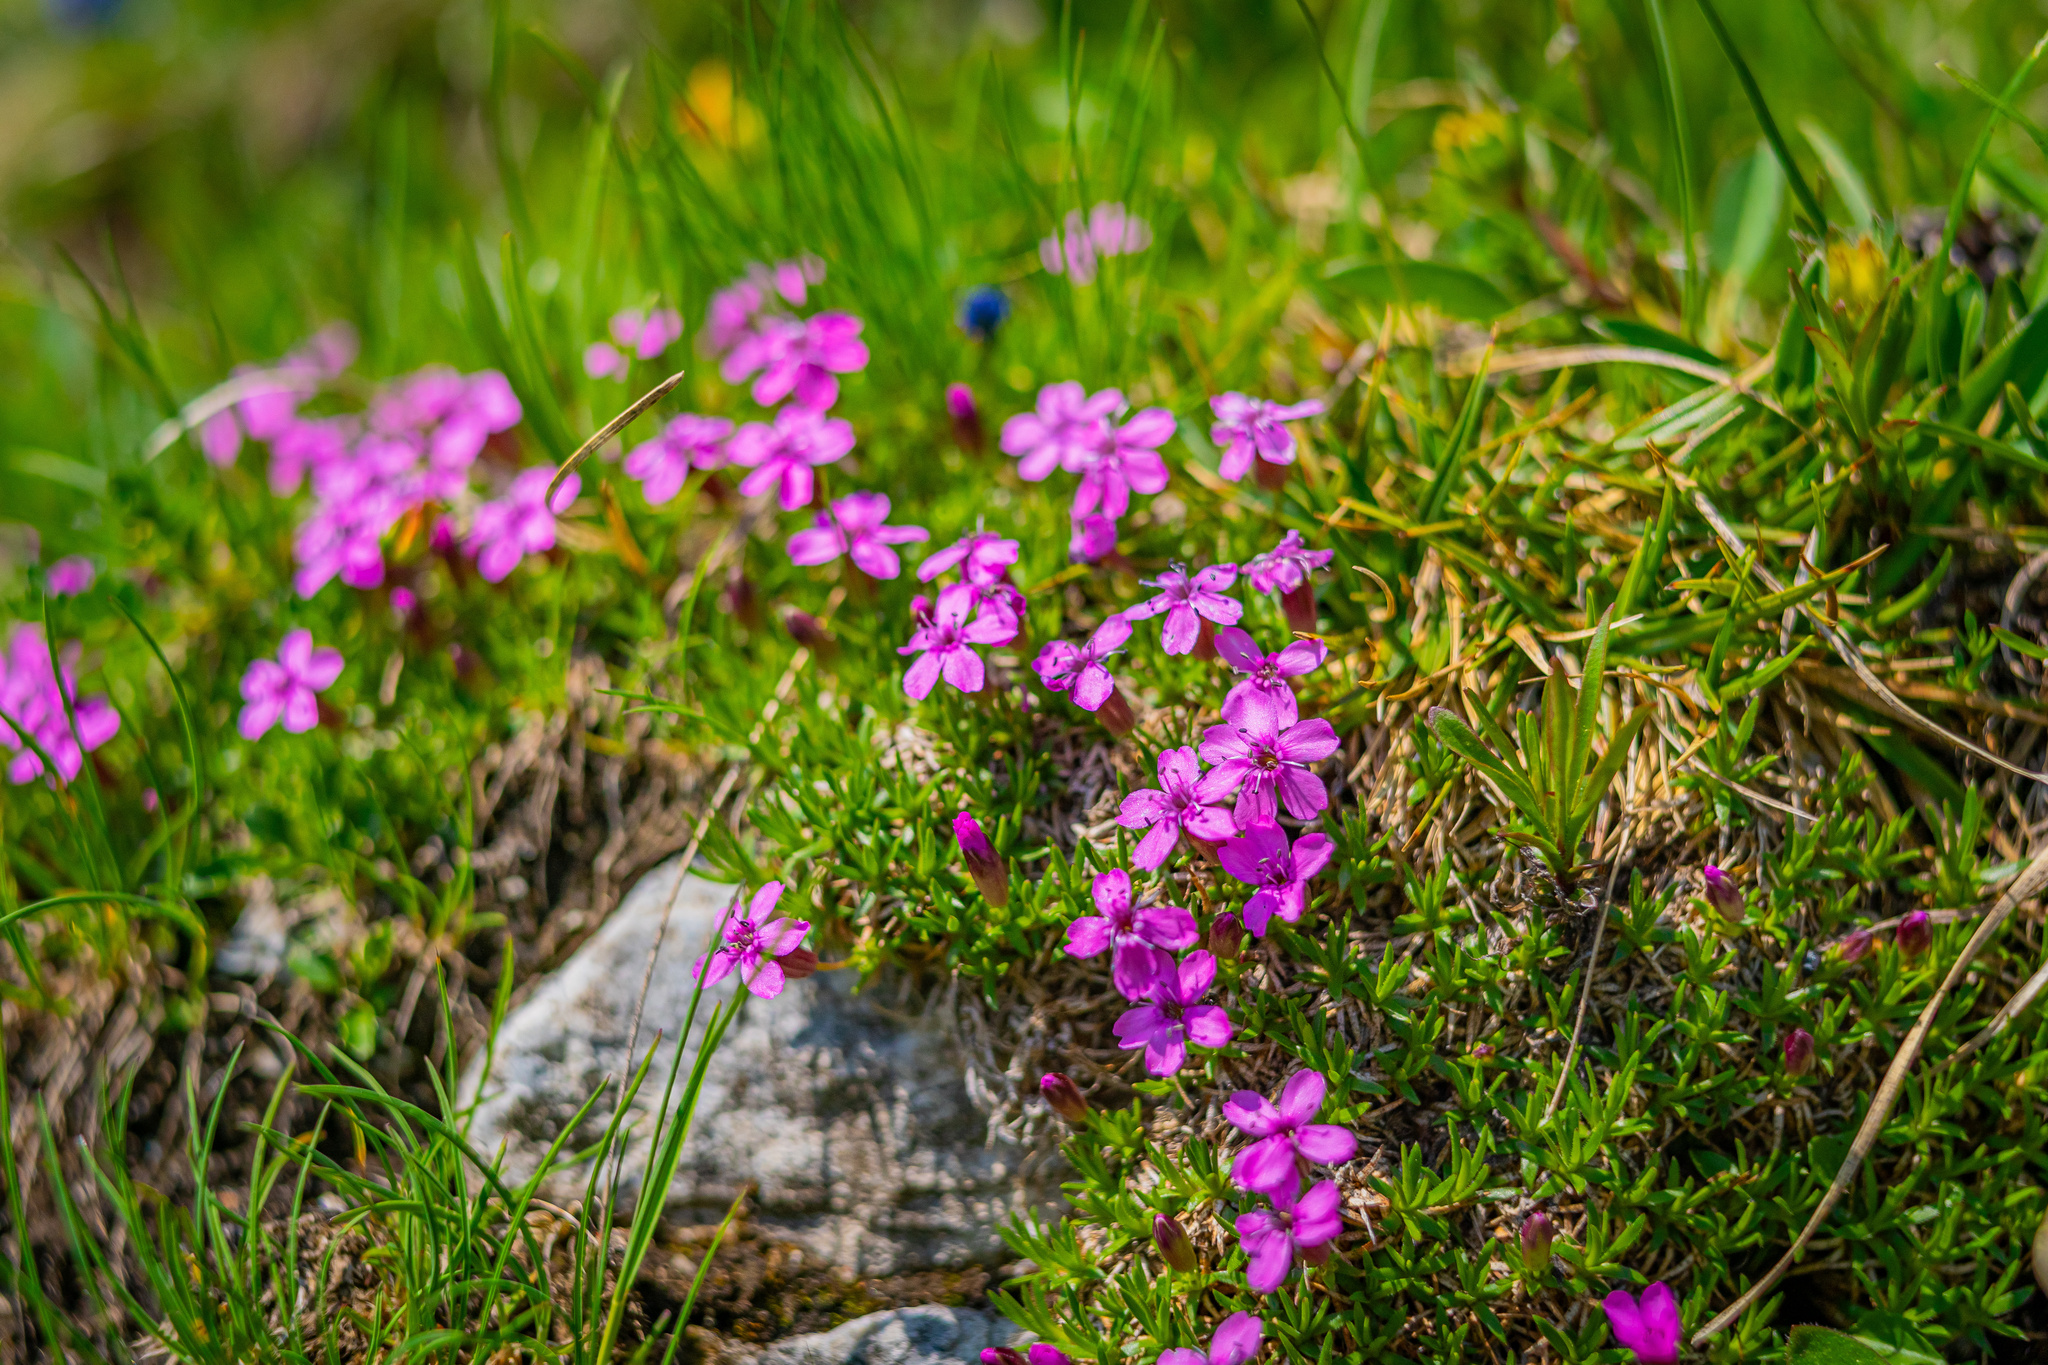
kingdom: Plantae
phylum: Tracheophyta
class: Magnoliopsida
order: Caryophyllales
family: Caryophyllaceae
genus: Silene
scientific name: Silene acaulis
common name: Moss campion
